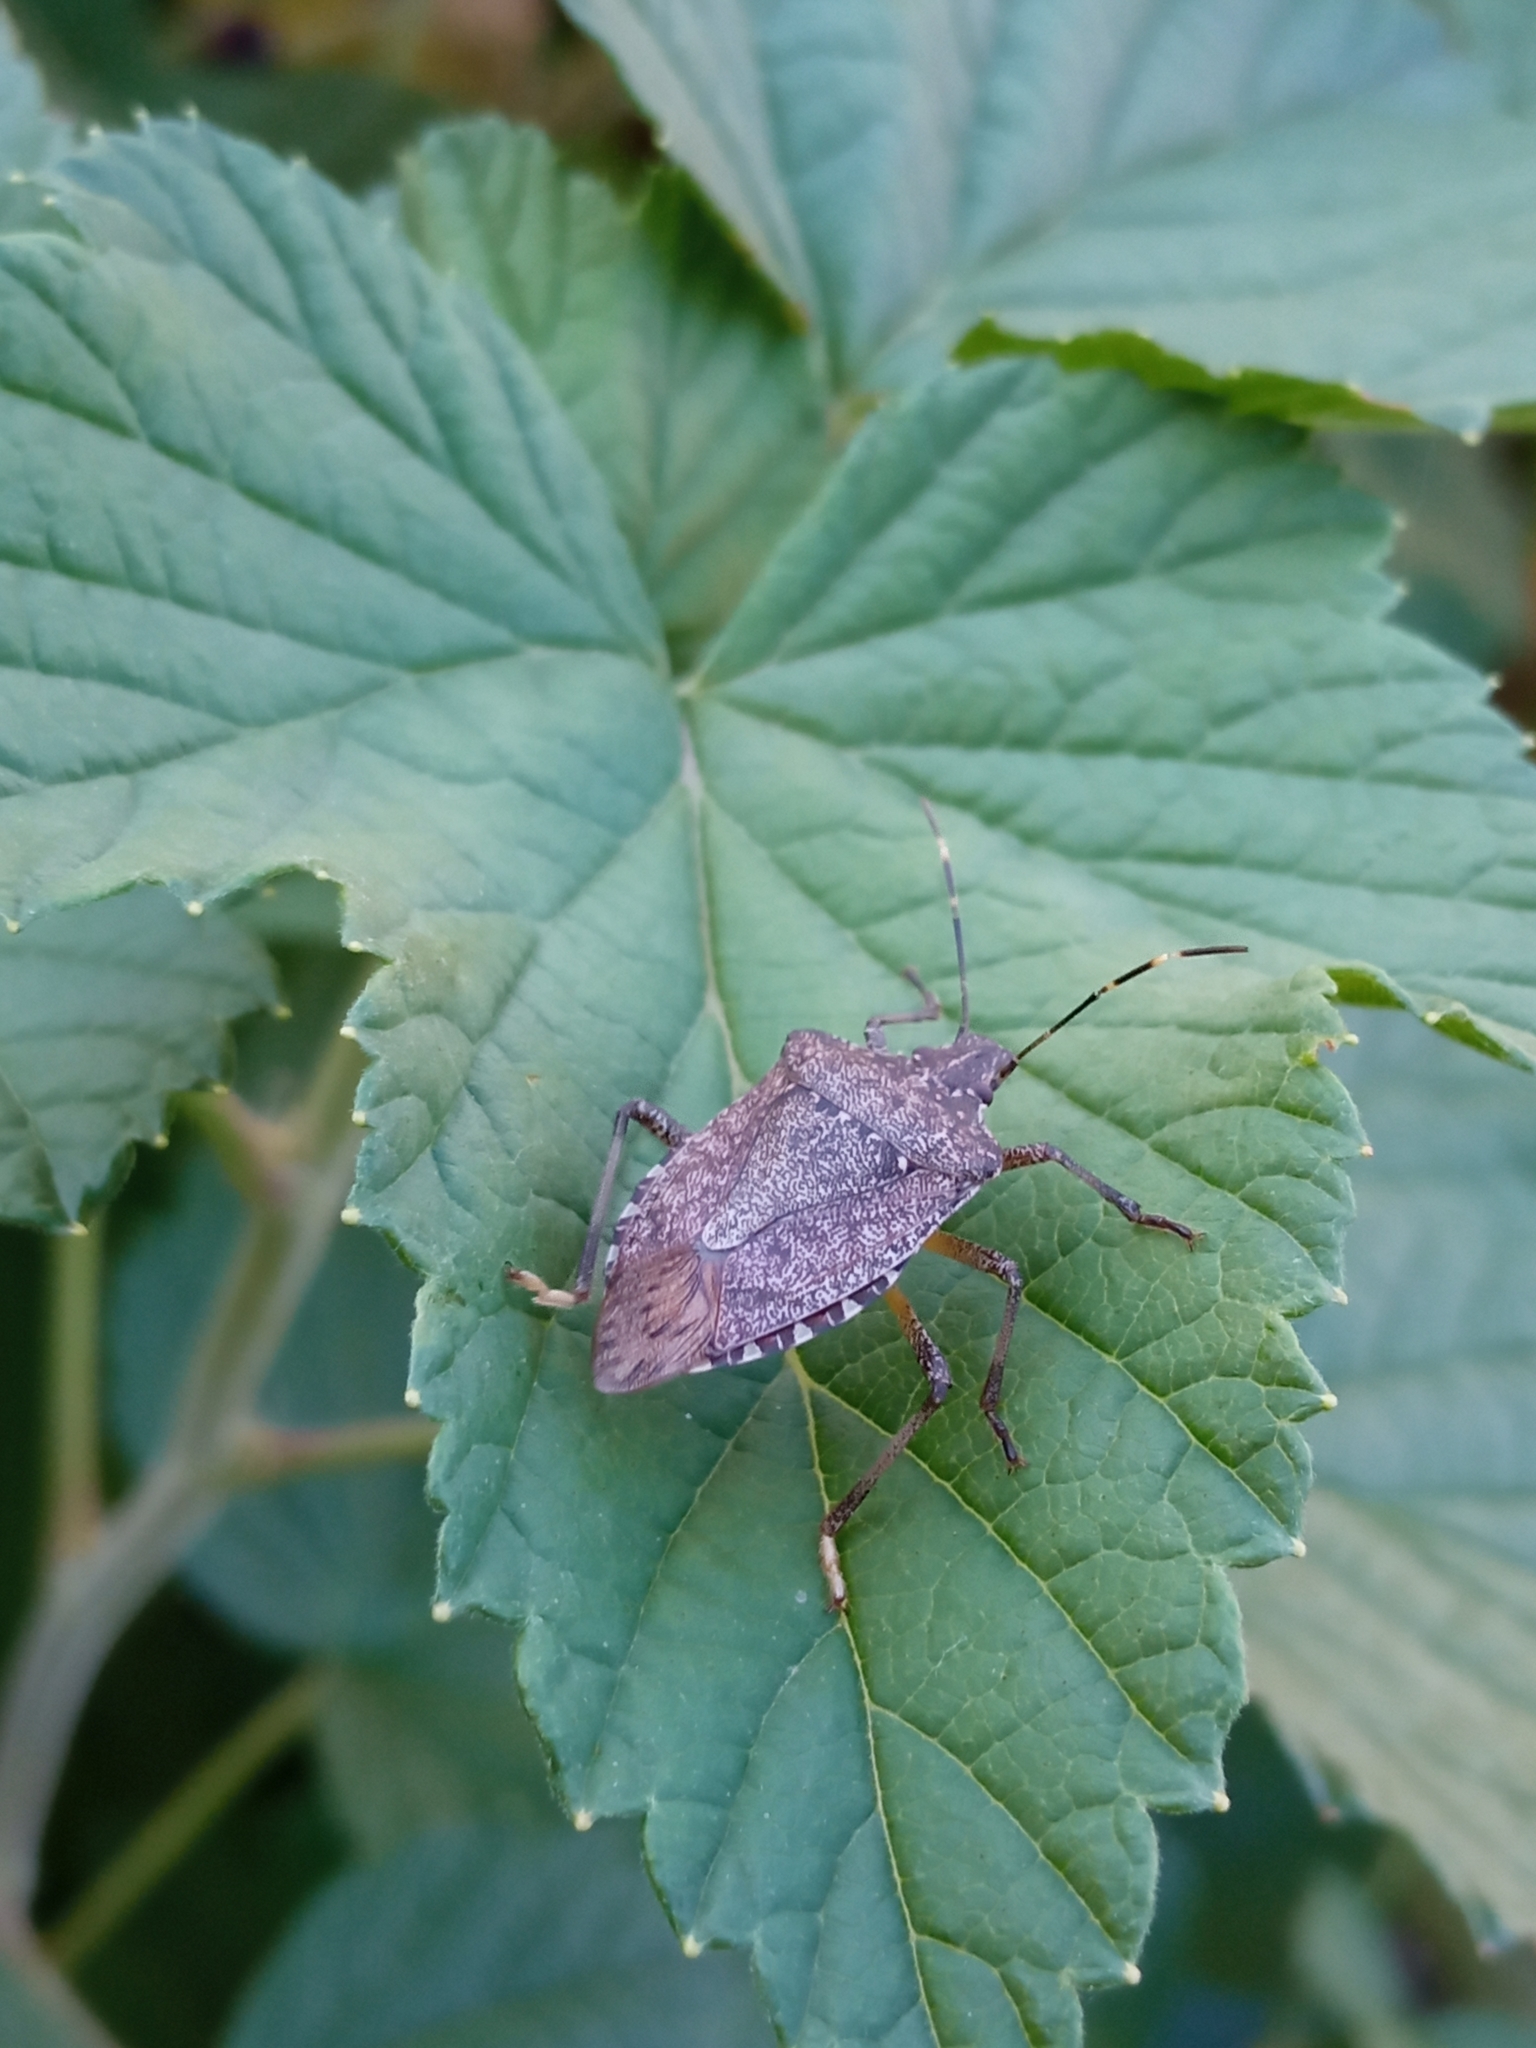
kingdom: Animalia
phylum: Arthropoda
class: Insecta
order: Hemiptera
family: Pentatomidae
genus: Halyomorpha
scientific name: Halyomorpha halys
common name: Brown marmorated stink bug
